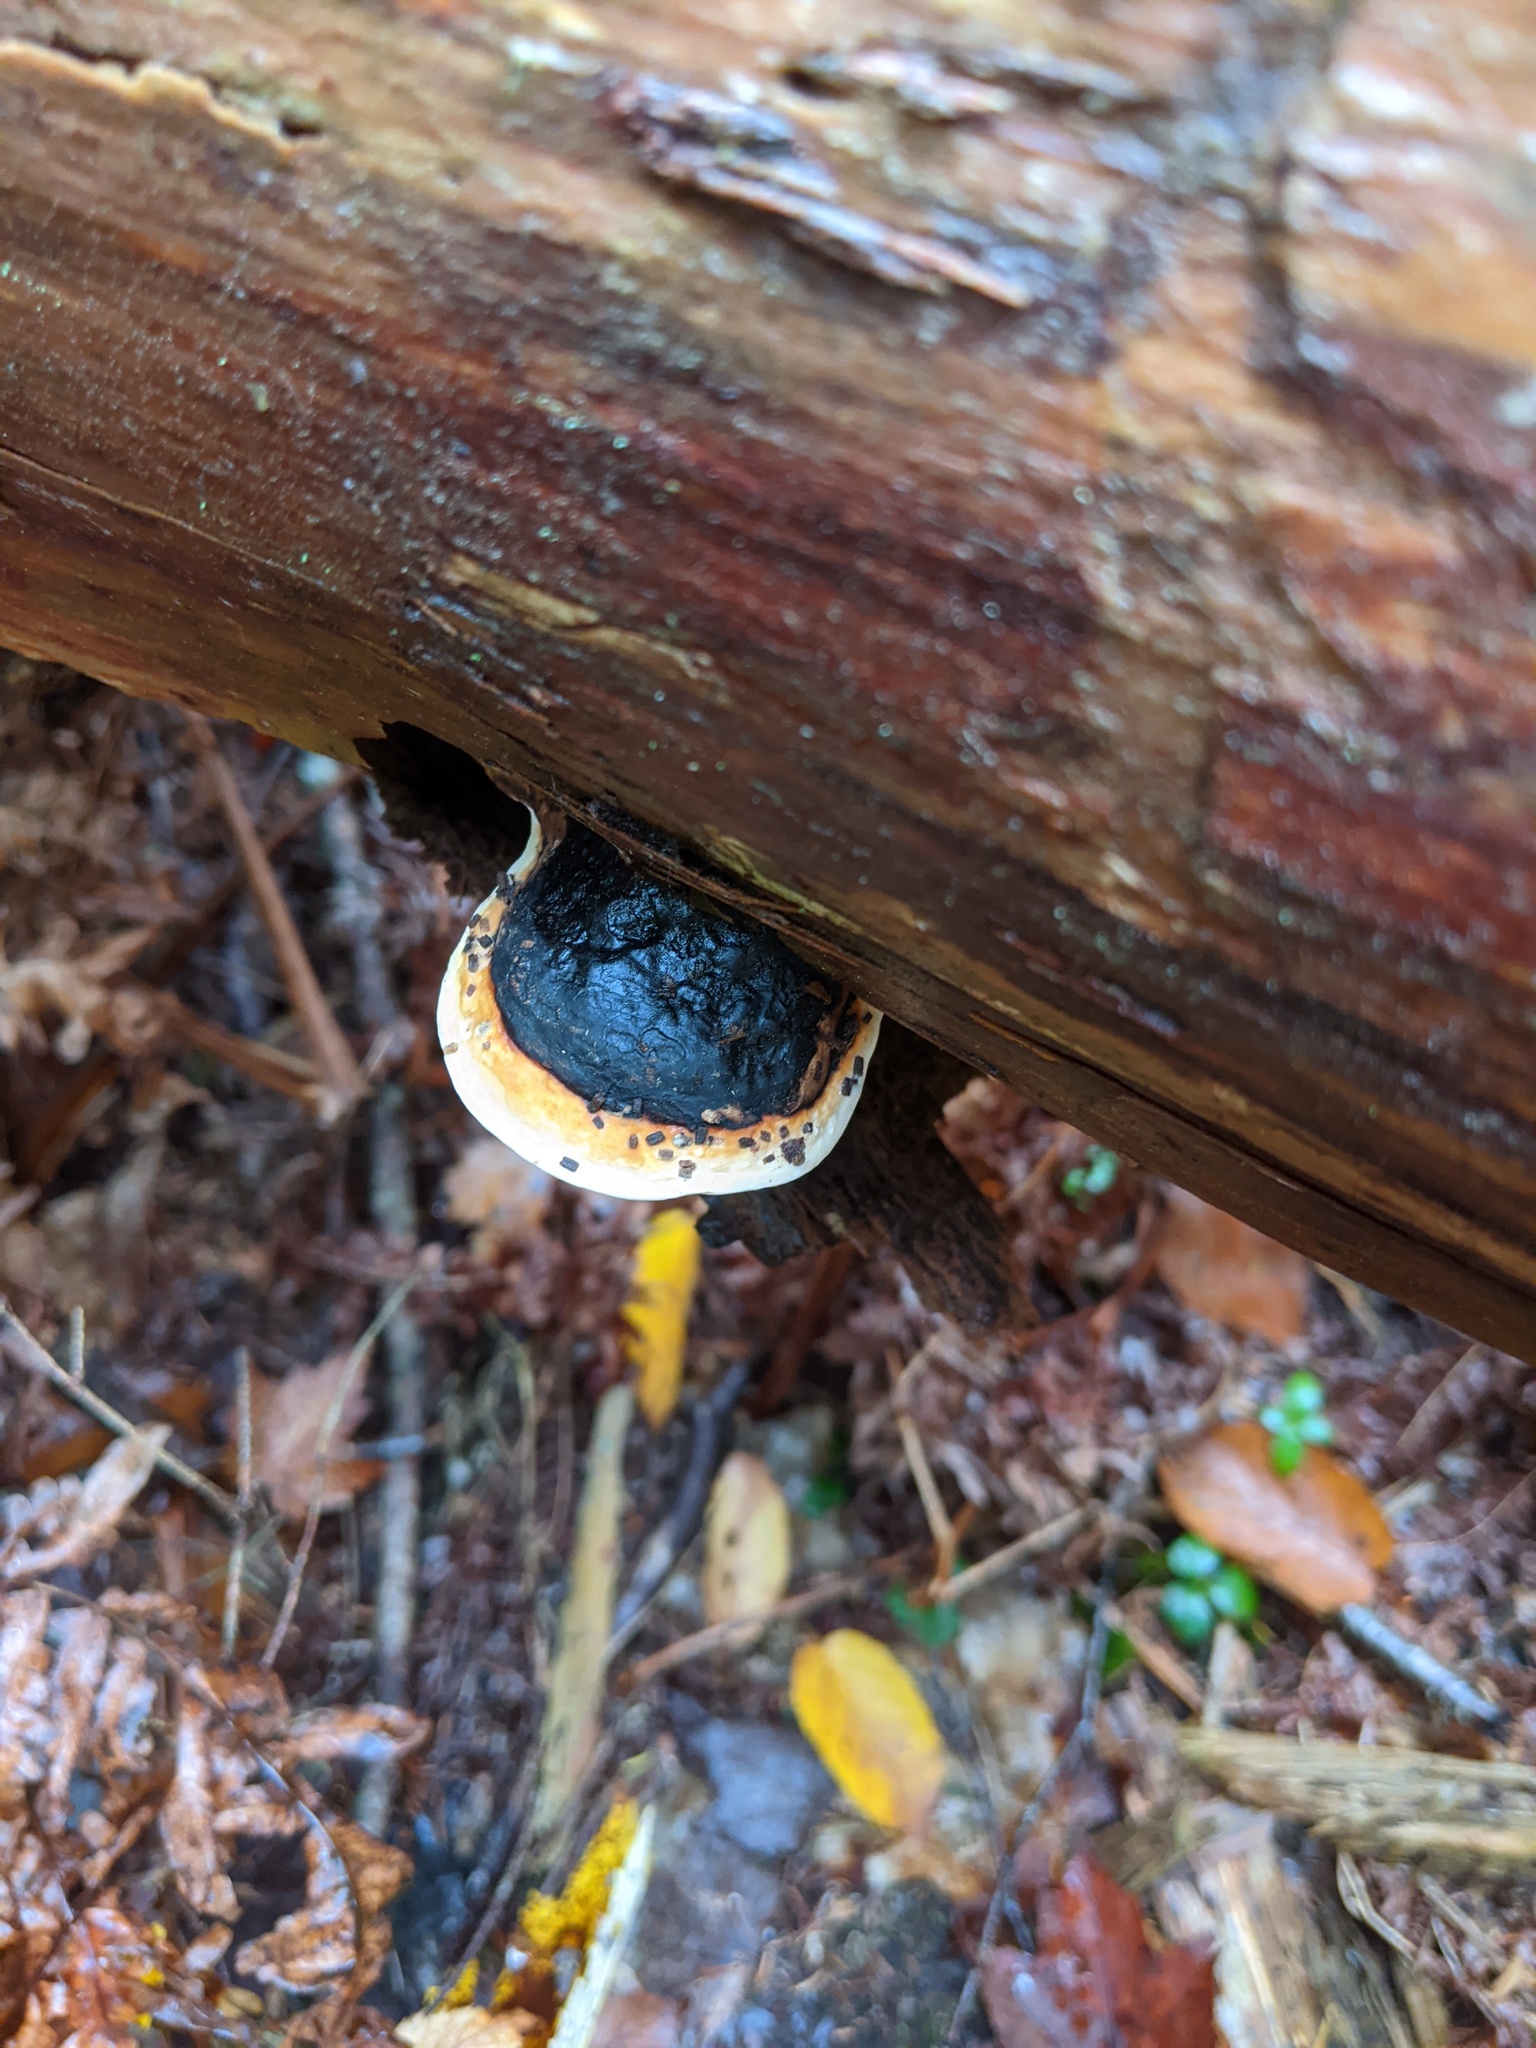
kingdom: Fungi
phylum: Basidiomycota
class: Agaricomycetes
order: Polyporales
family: Fomitopsidaceae
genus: Fomitopsis
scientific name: Fomitopsis mounceae
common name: Northern red belt
